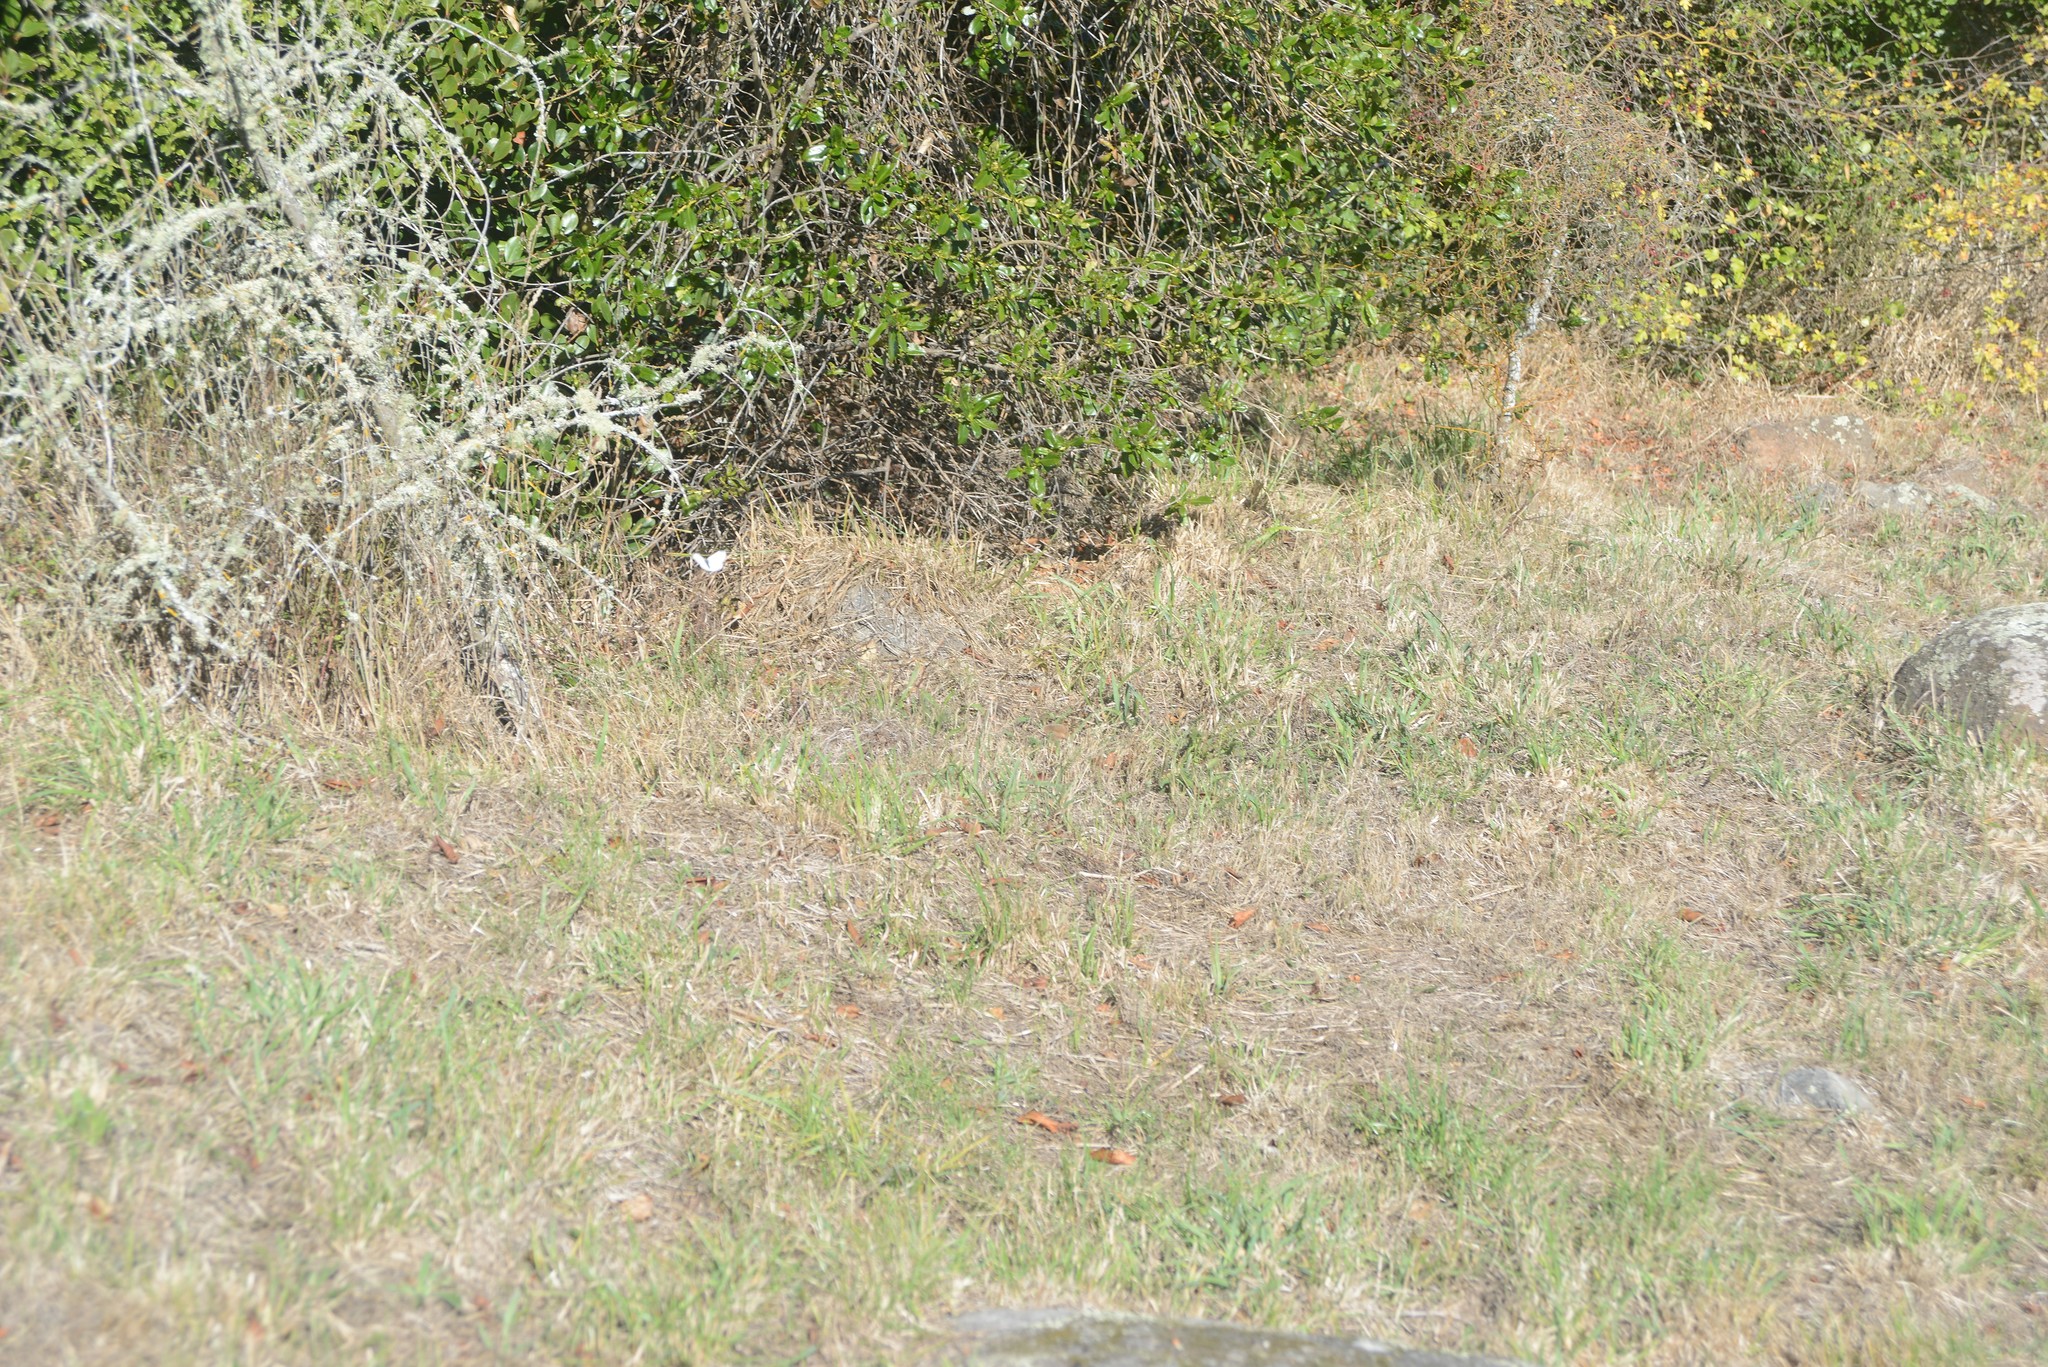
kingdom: Animalia
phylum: Arthropoda
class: Insecta
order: Lepidoptera
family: Pieridae
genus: Pieris
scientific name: Pieris rapae
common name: Small white
